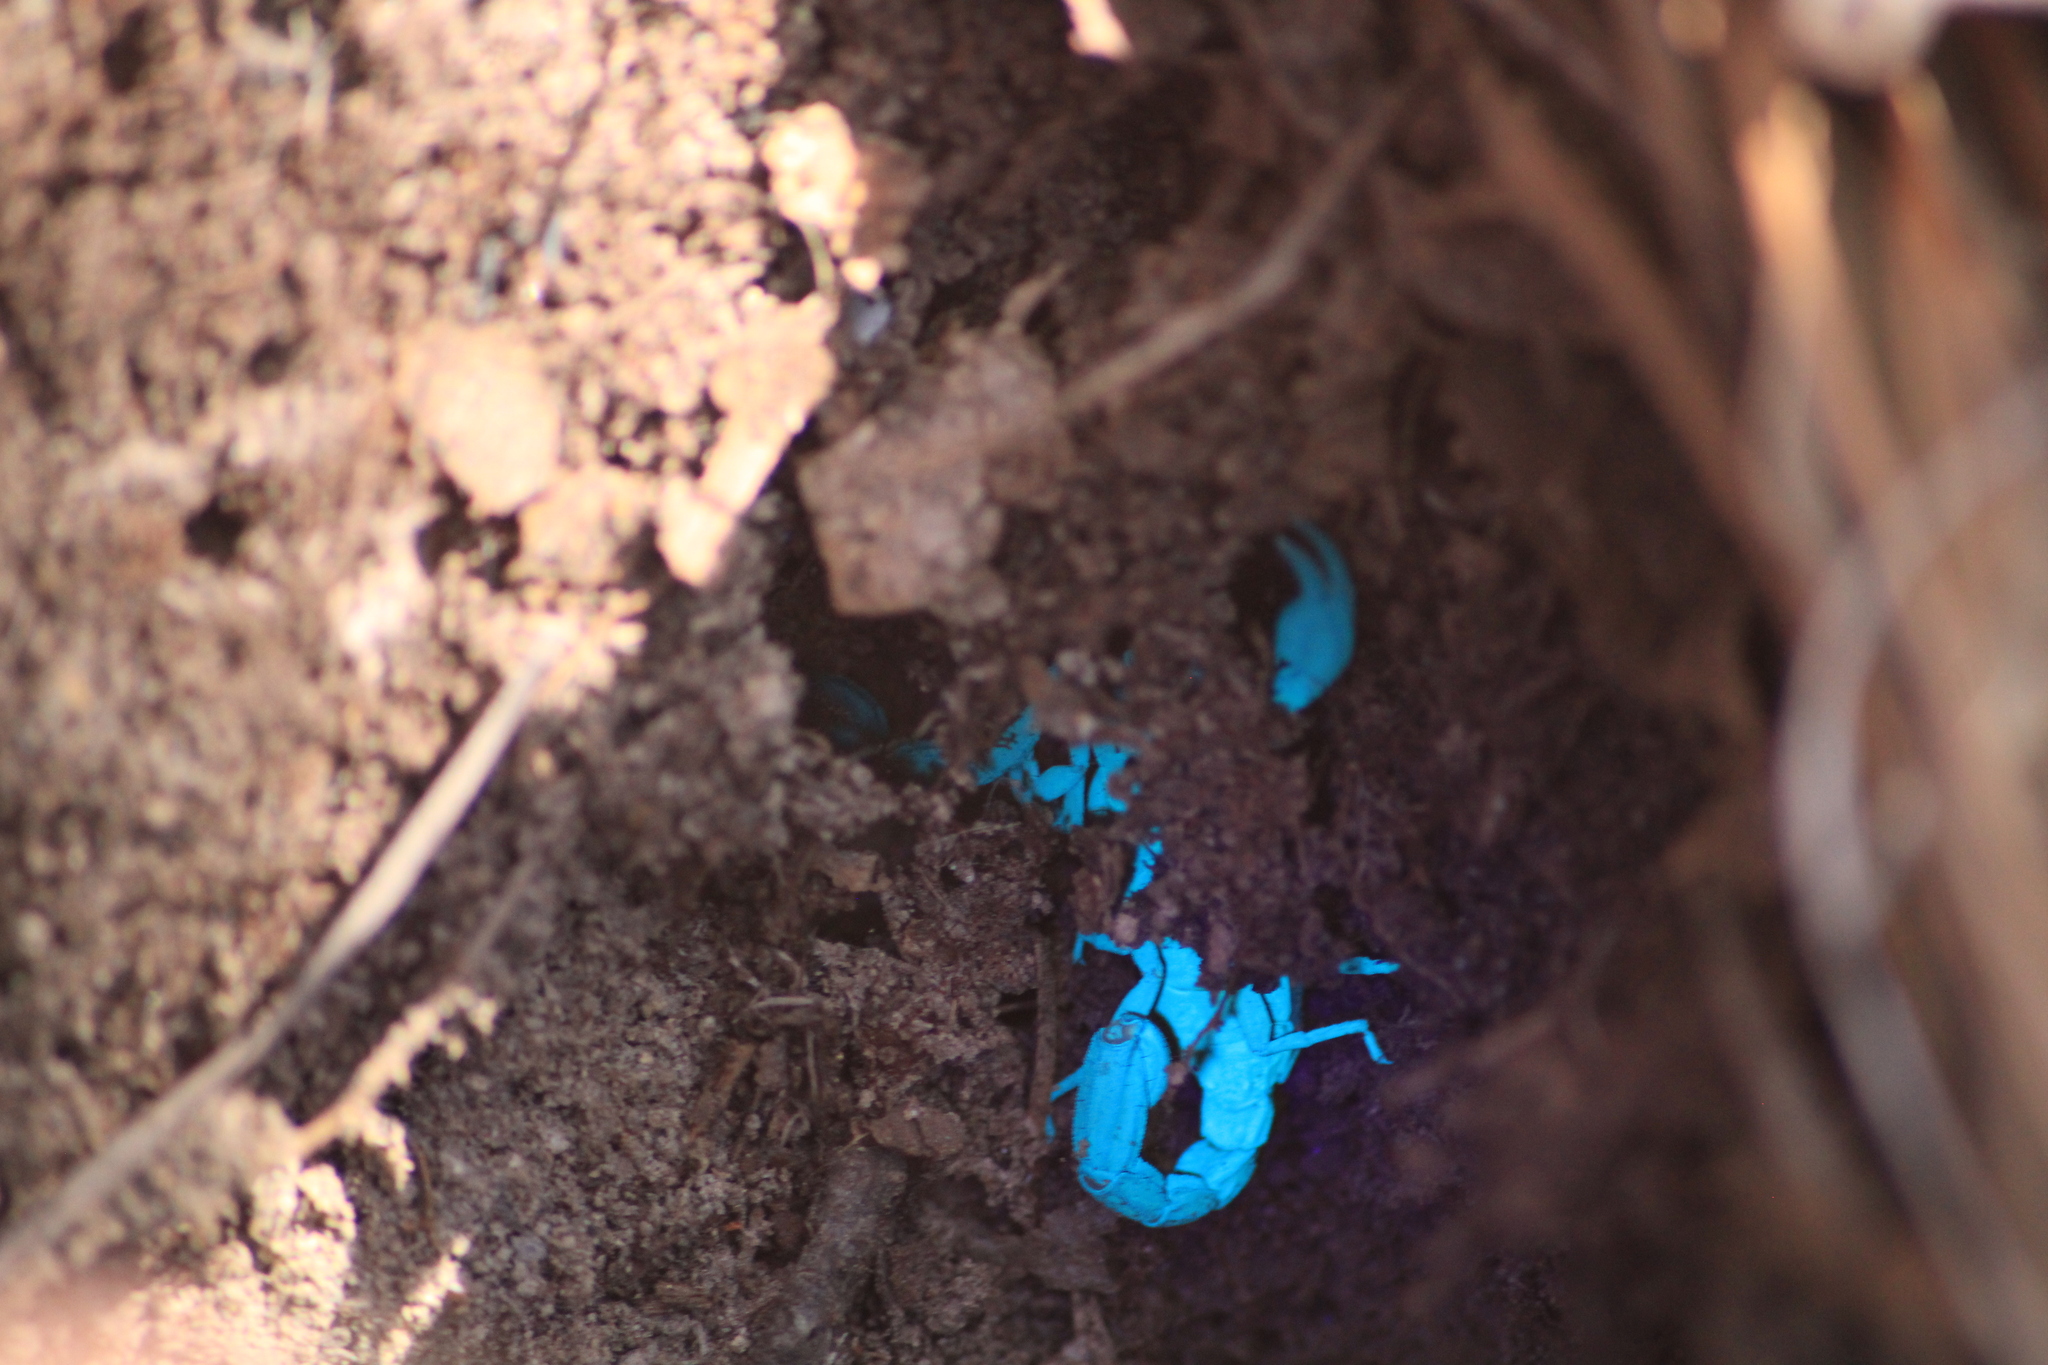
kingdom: Animalia
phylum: Arthropoda
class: Arachnida
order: Scorpiones
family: Vaejovidae
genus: Thorellius
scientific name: Thorellius cristimanus
